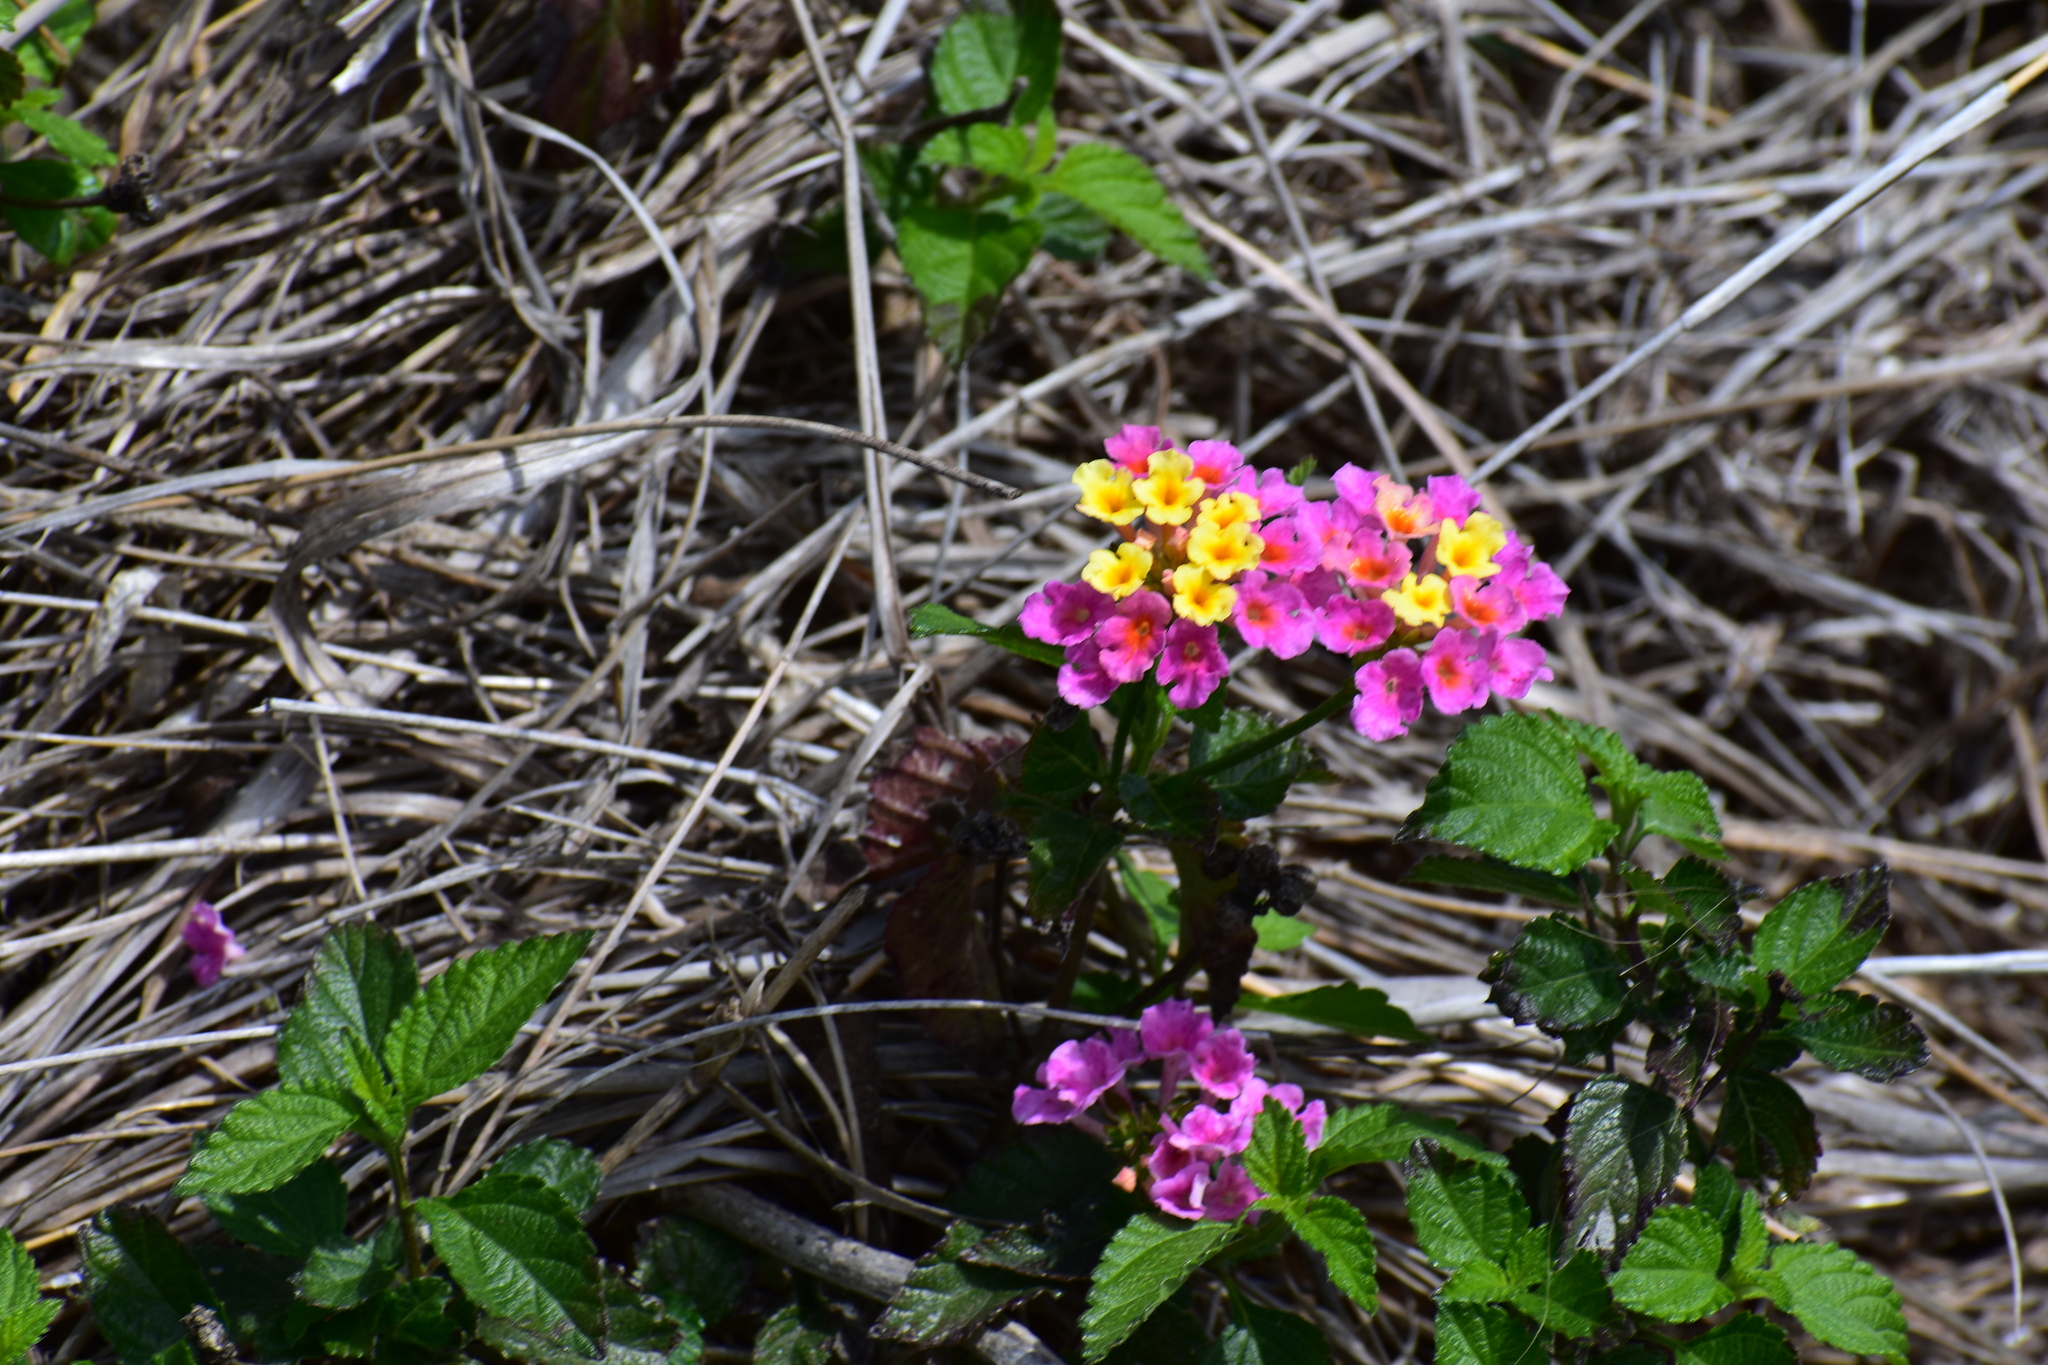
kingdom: Plantae
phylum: Tracheophyta
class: Magnoliopsida
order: Lamiales
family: Verbenaceae
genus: Lantana
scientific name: Lantana strigocamara
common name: Lantana
